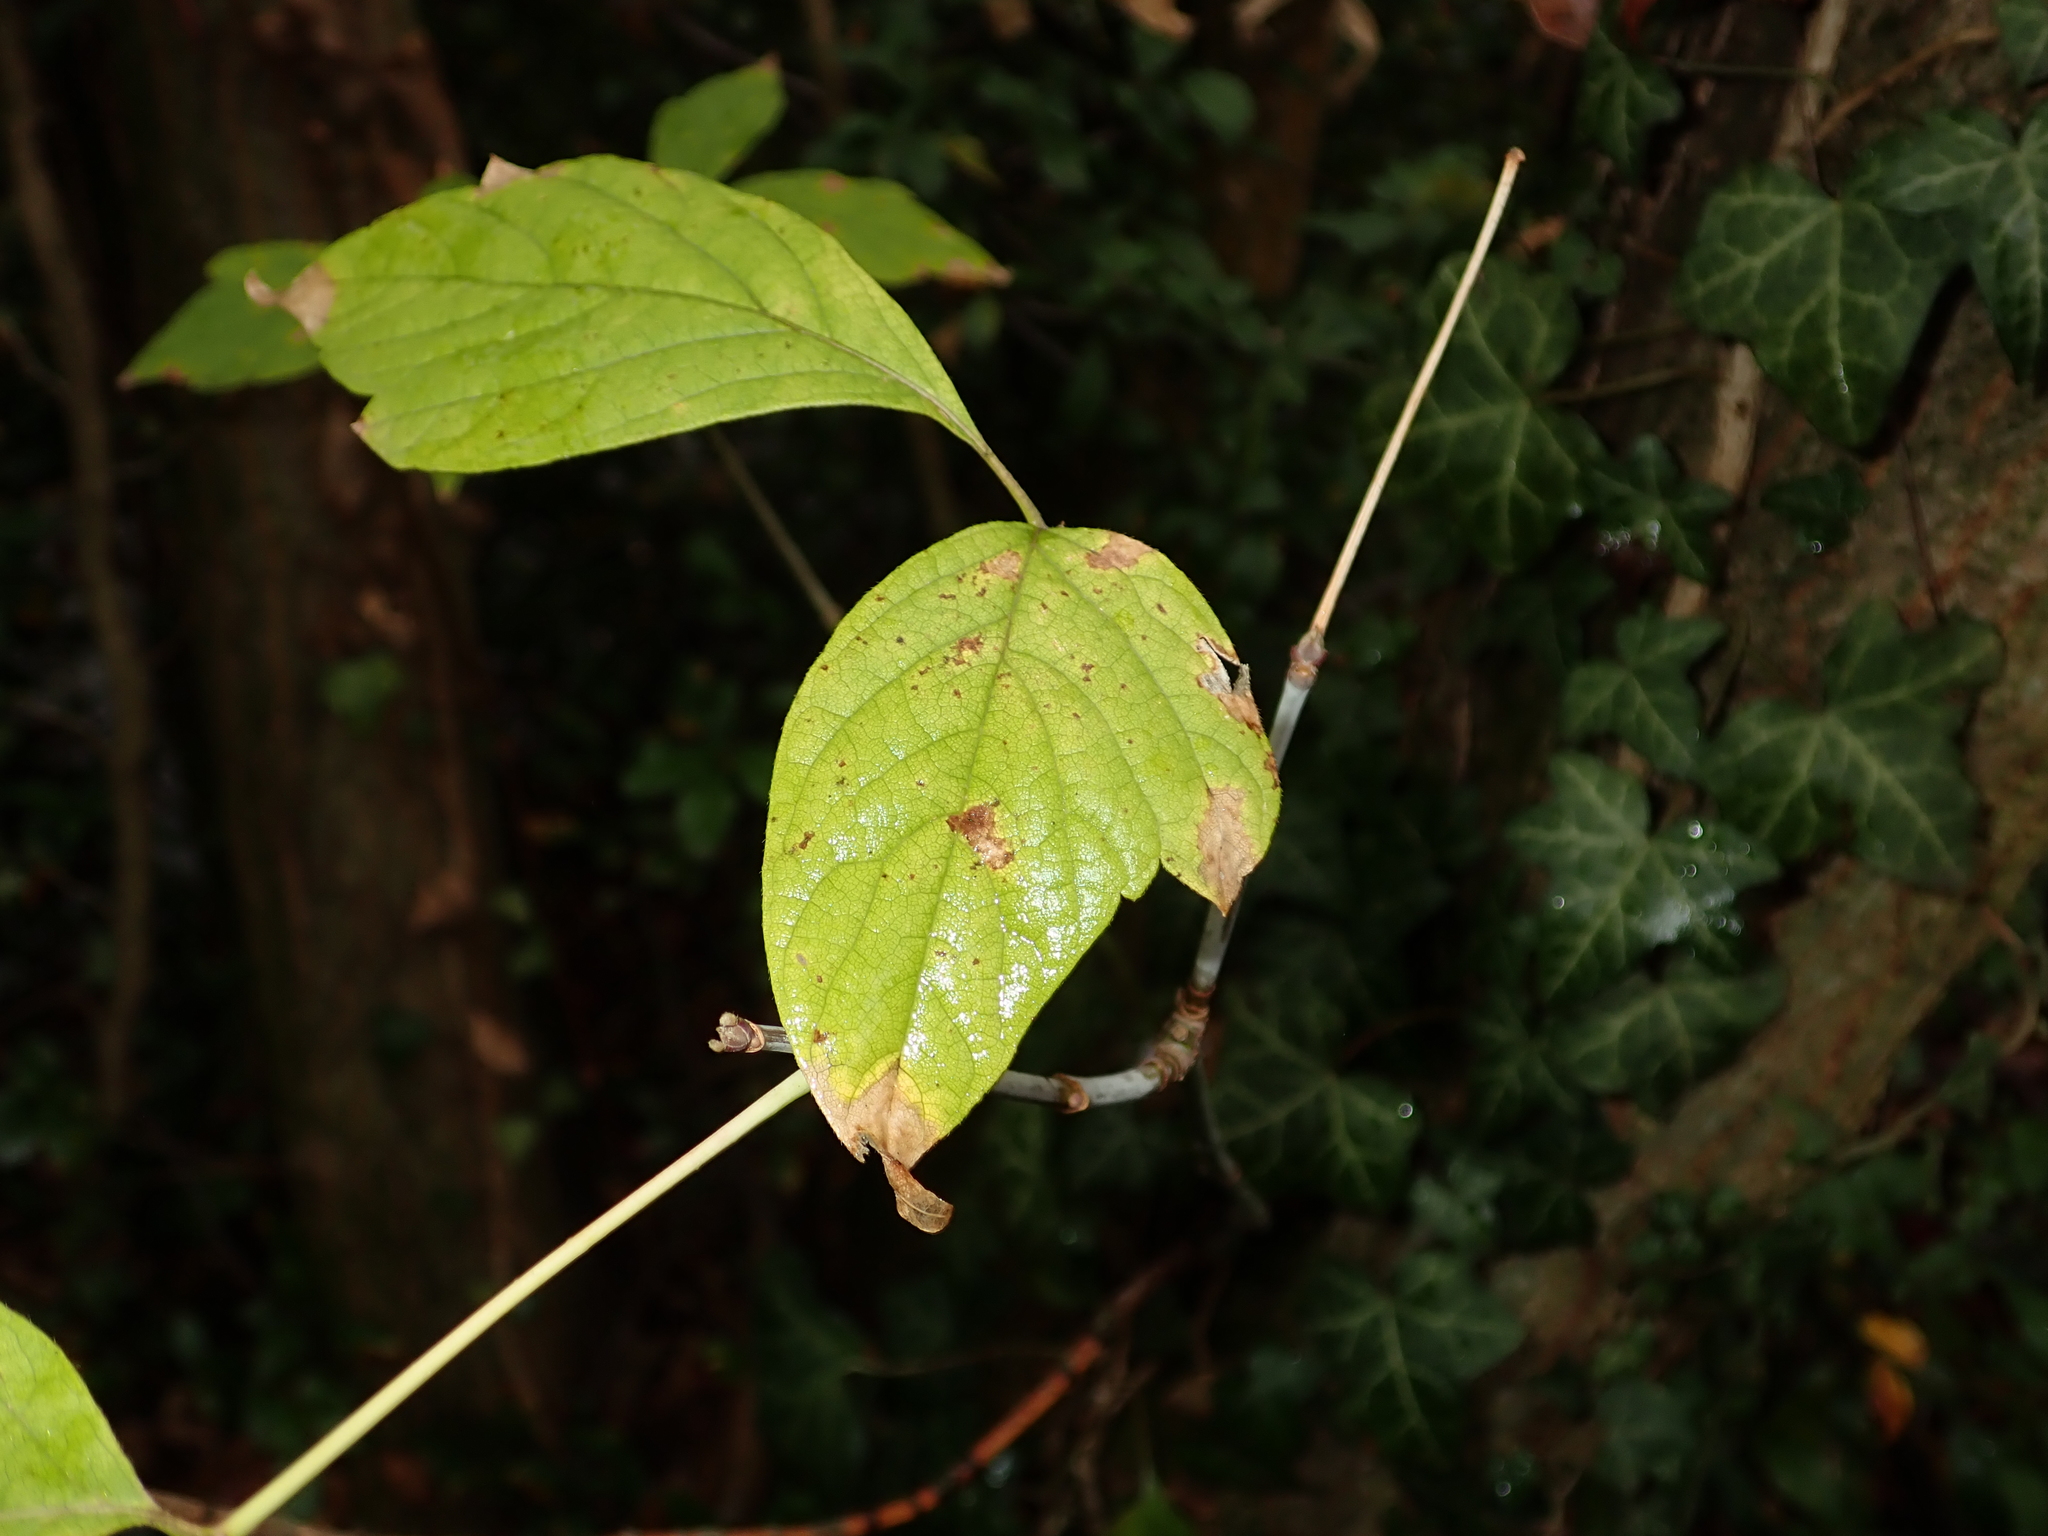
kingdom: Plantae
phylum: Tracheophyta
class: Magnoliopsida
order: Sapindales
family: Sapindaceae
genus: Acer
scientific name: Acer negundo
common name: Ashleaf maple
